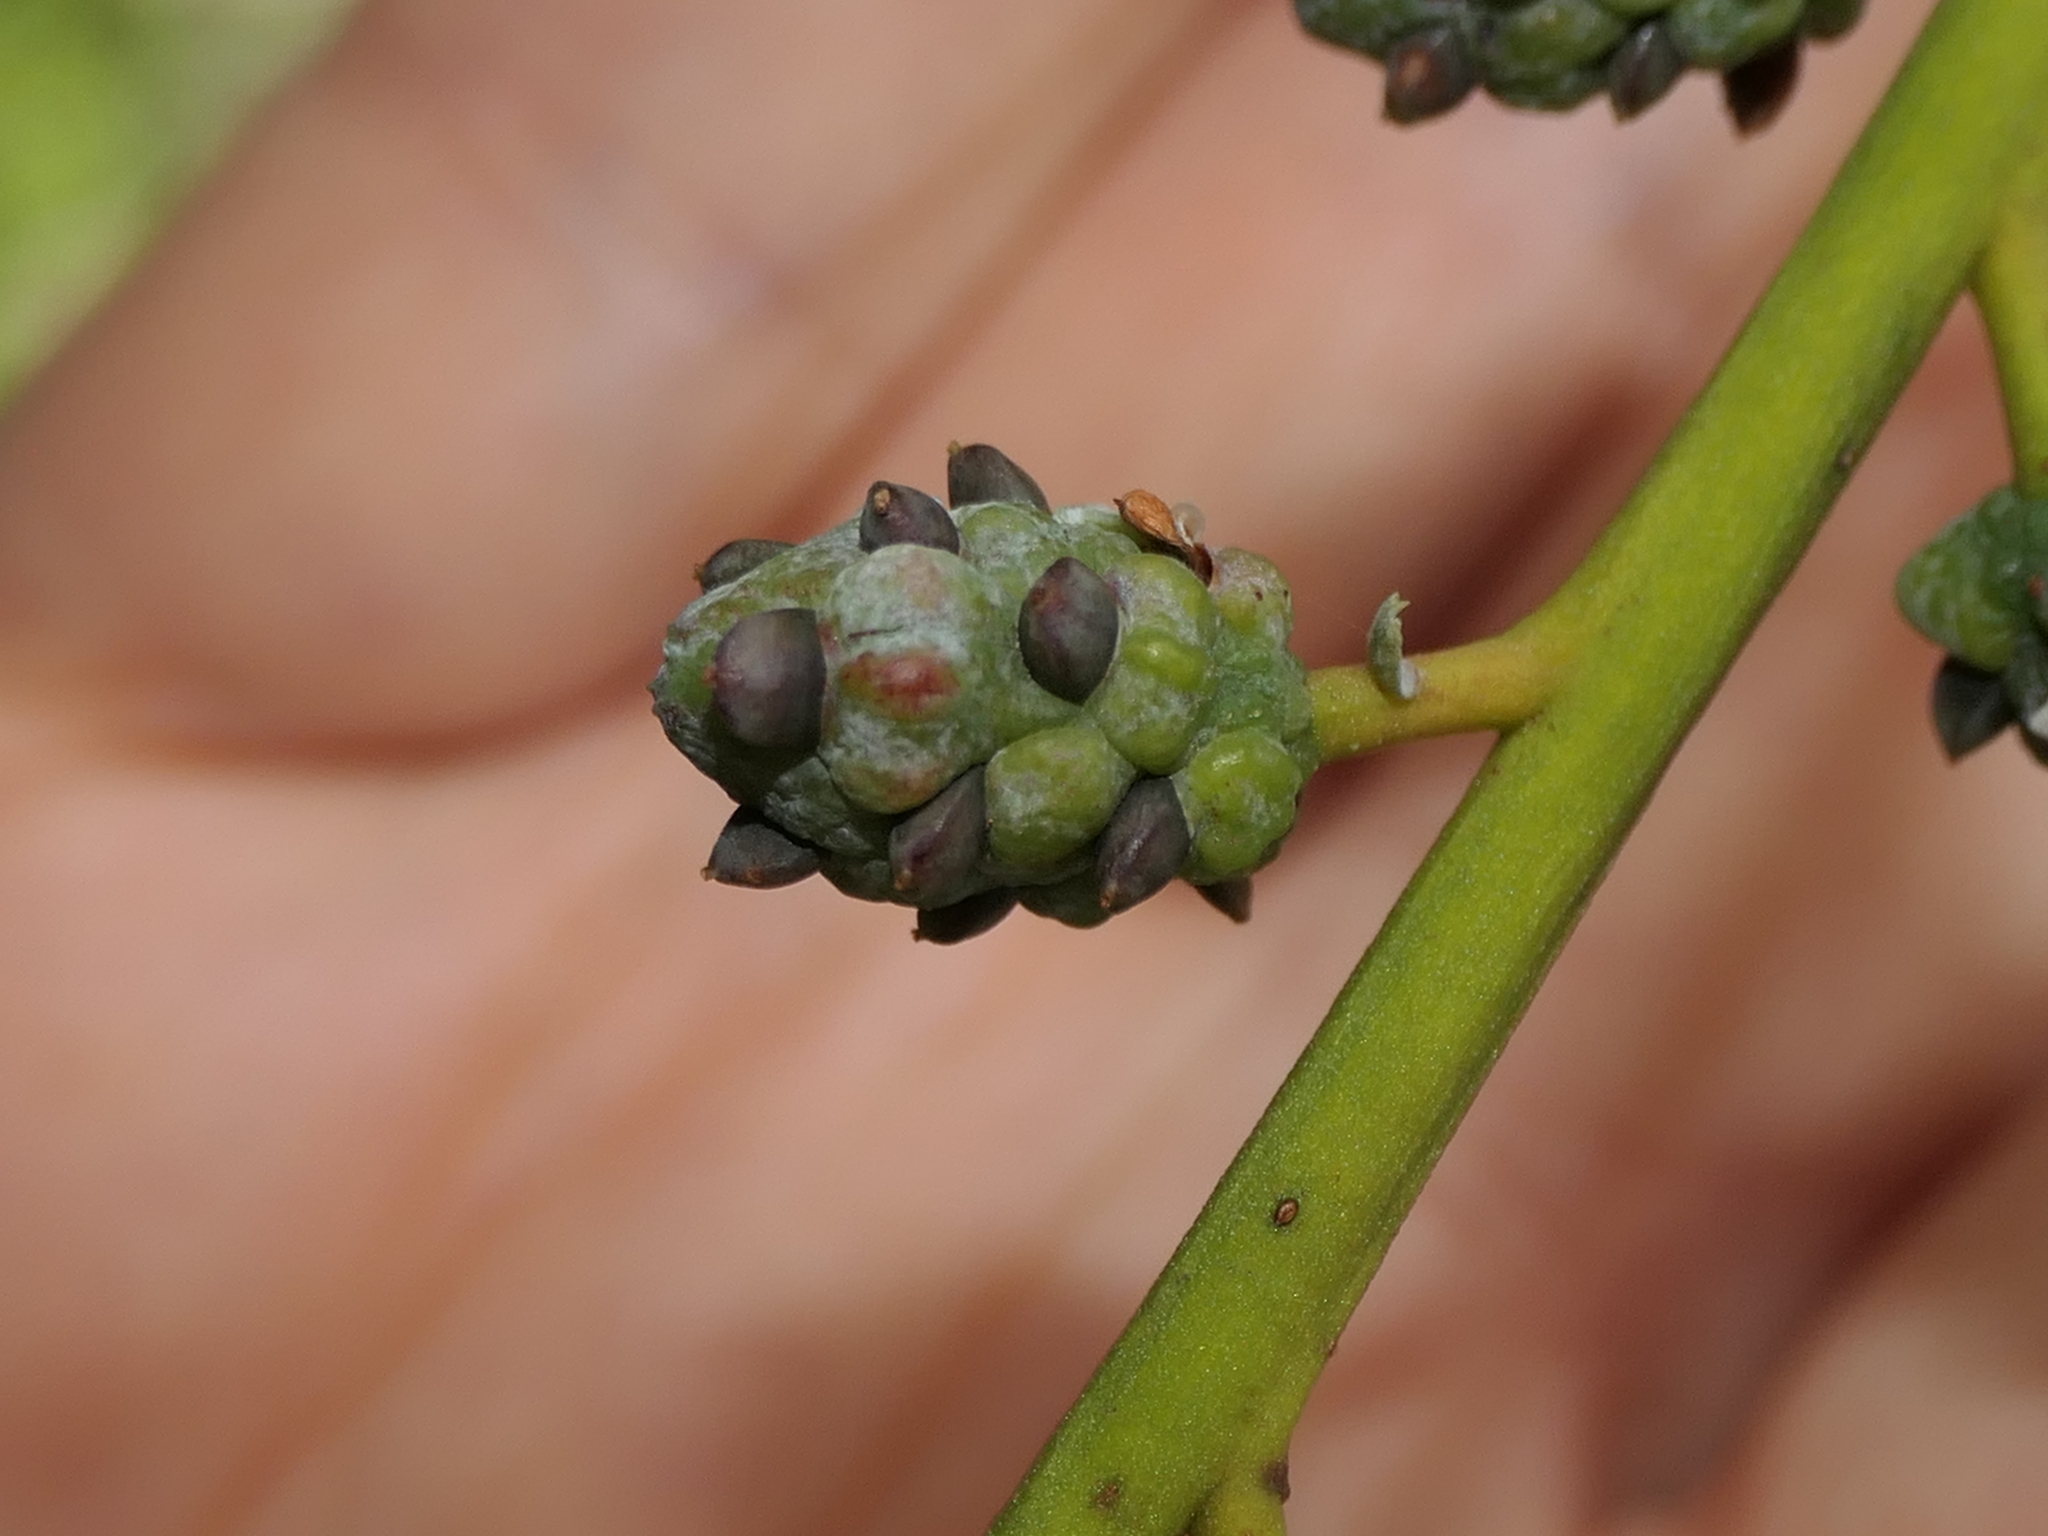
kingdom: Plantae
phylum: Tracheophyta
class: Pinopsida
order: Pinales
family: Phyllocladaceae
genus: Phyllocladus
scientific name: Phyllocladus toatoa
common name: Celery-top pine
